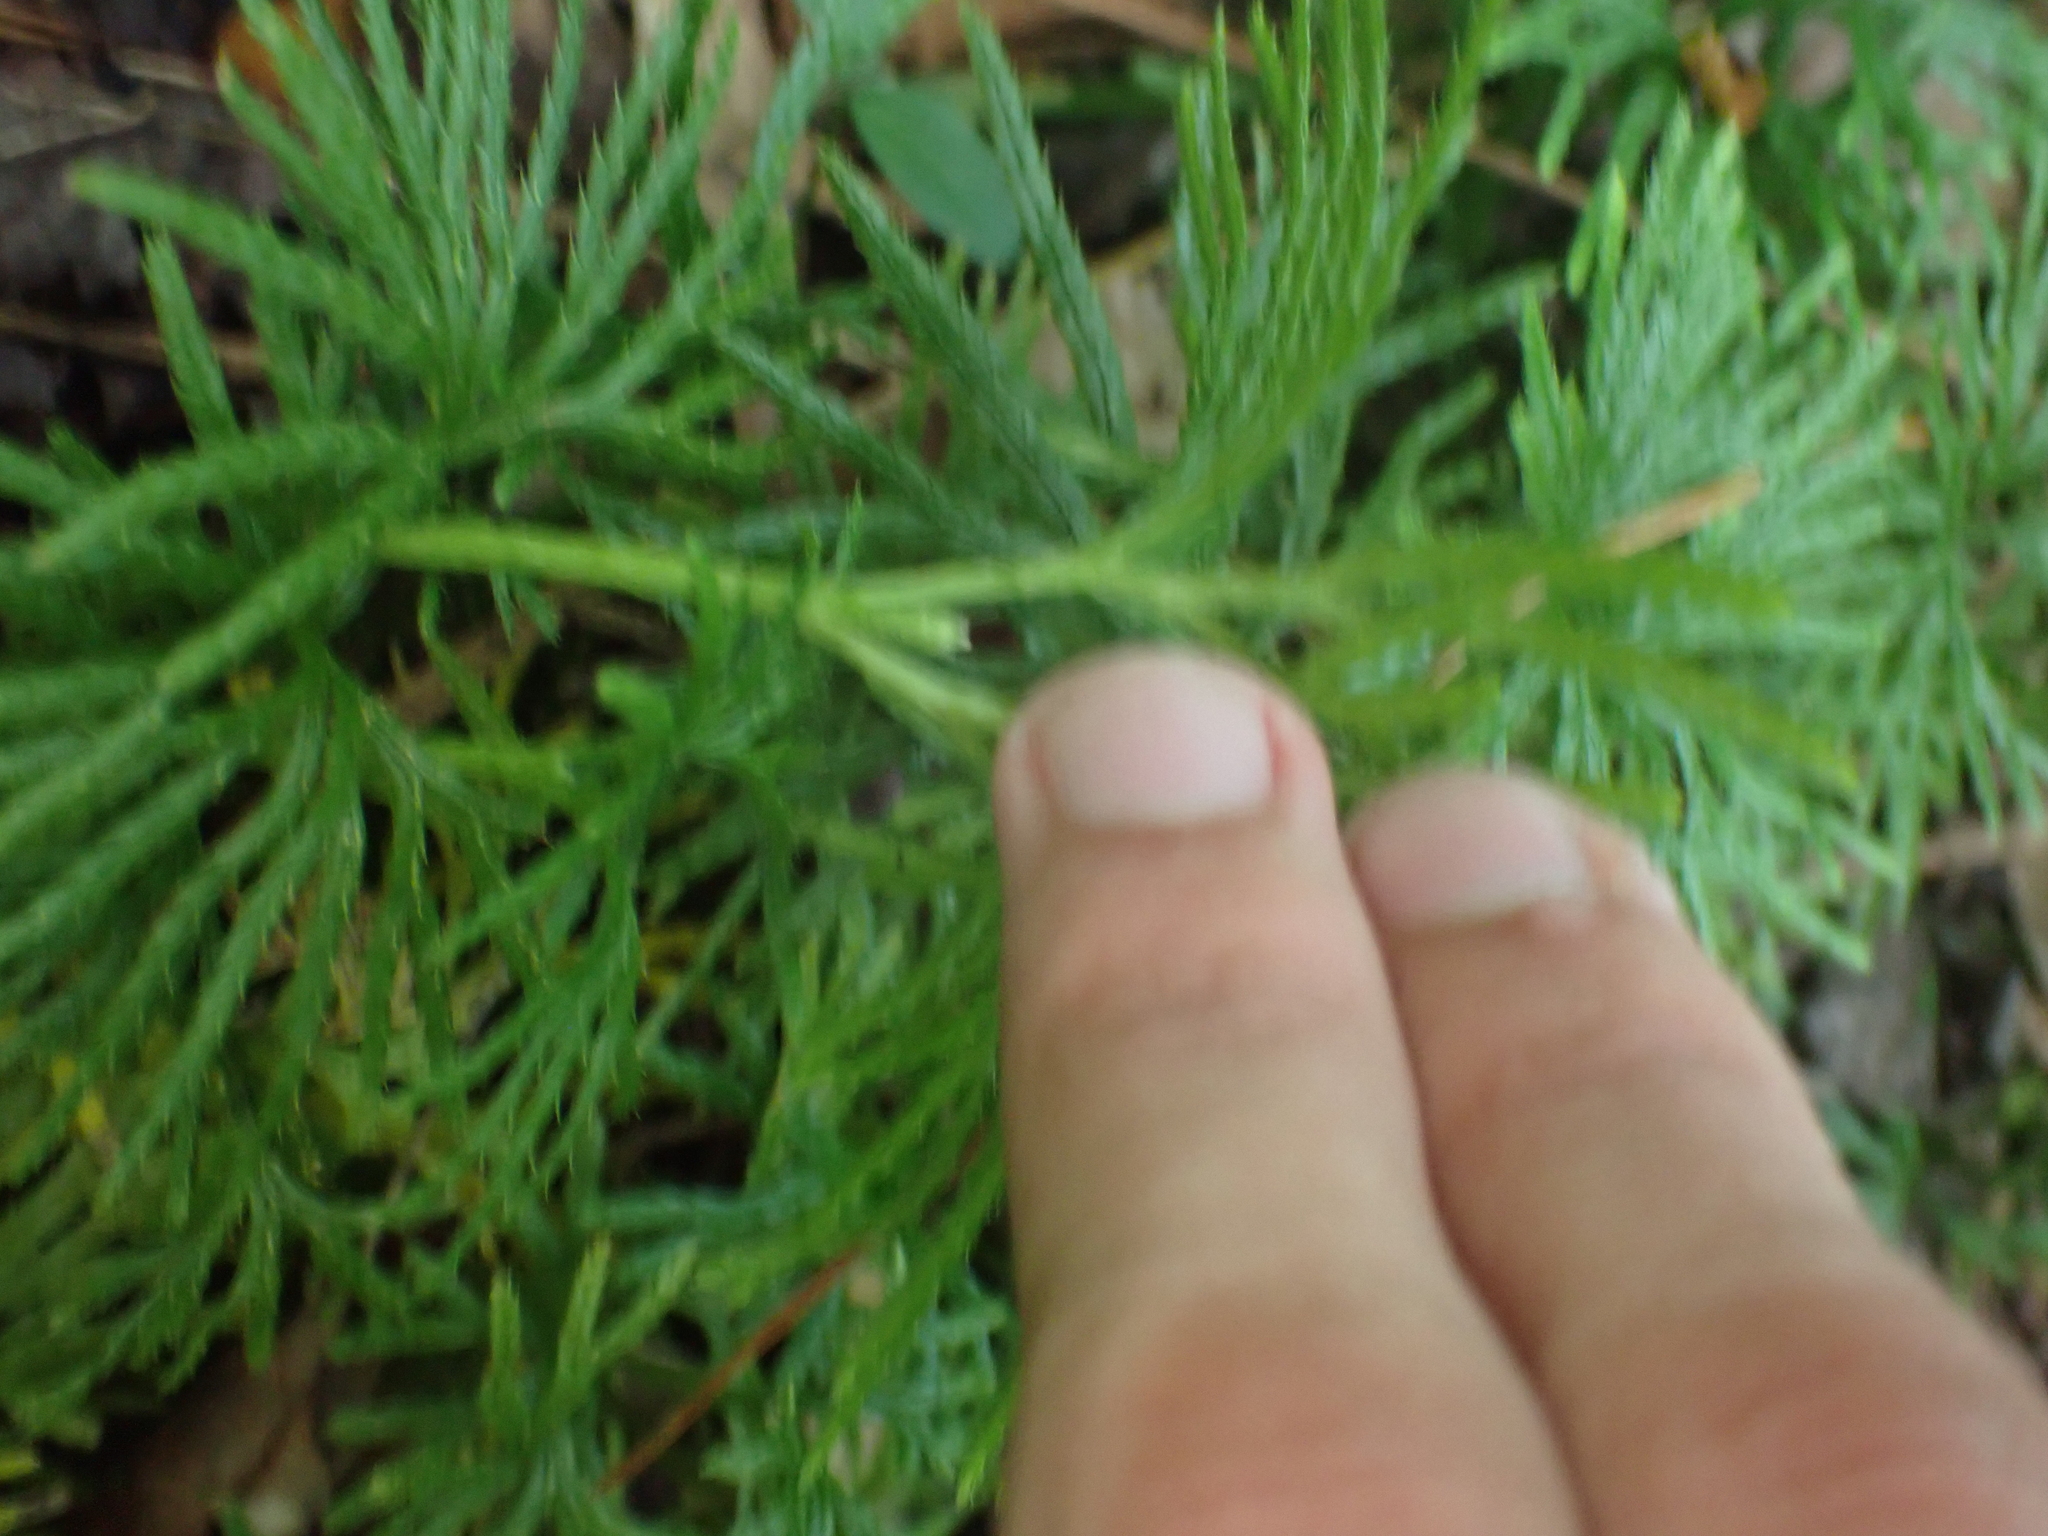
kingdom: Plantae
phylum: Tracheophyta
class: Lycopodiopsida
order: Lycopodiales
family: Lycopodiaceae
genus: Diphasiastrum
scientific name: Diphasiastrum digitatum
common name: Southern running-pine
